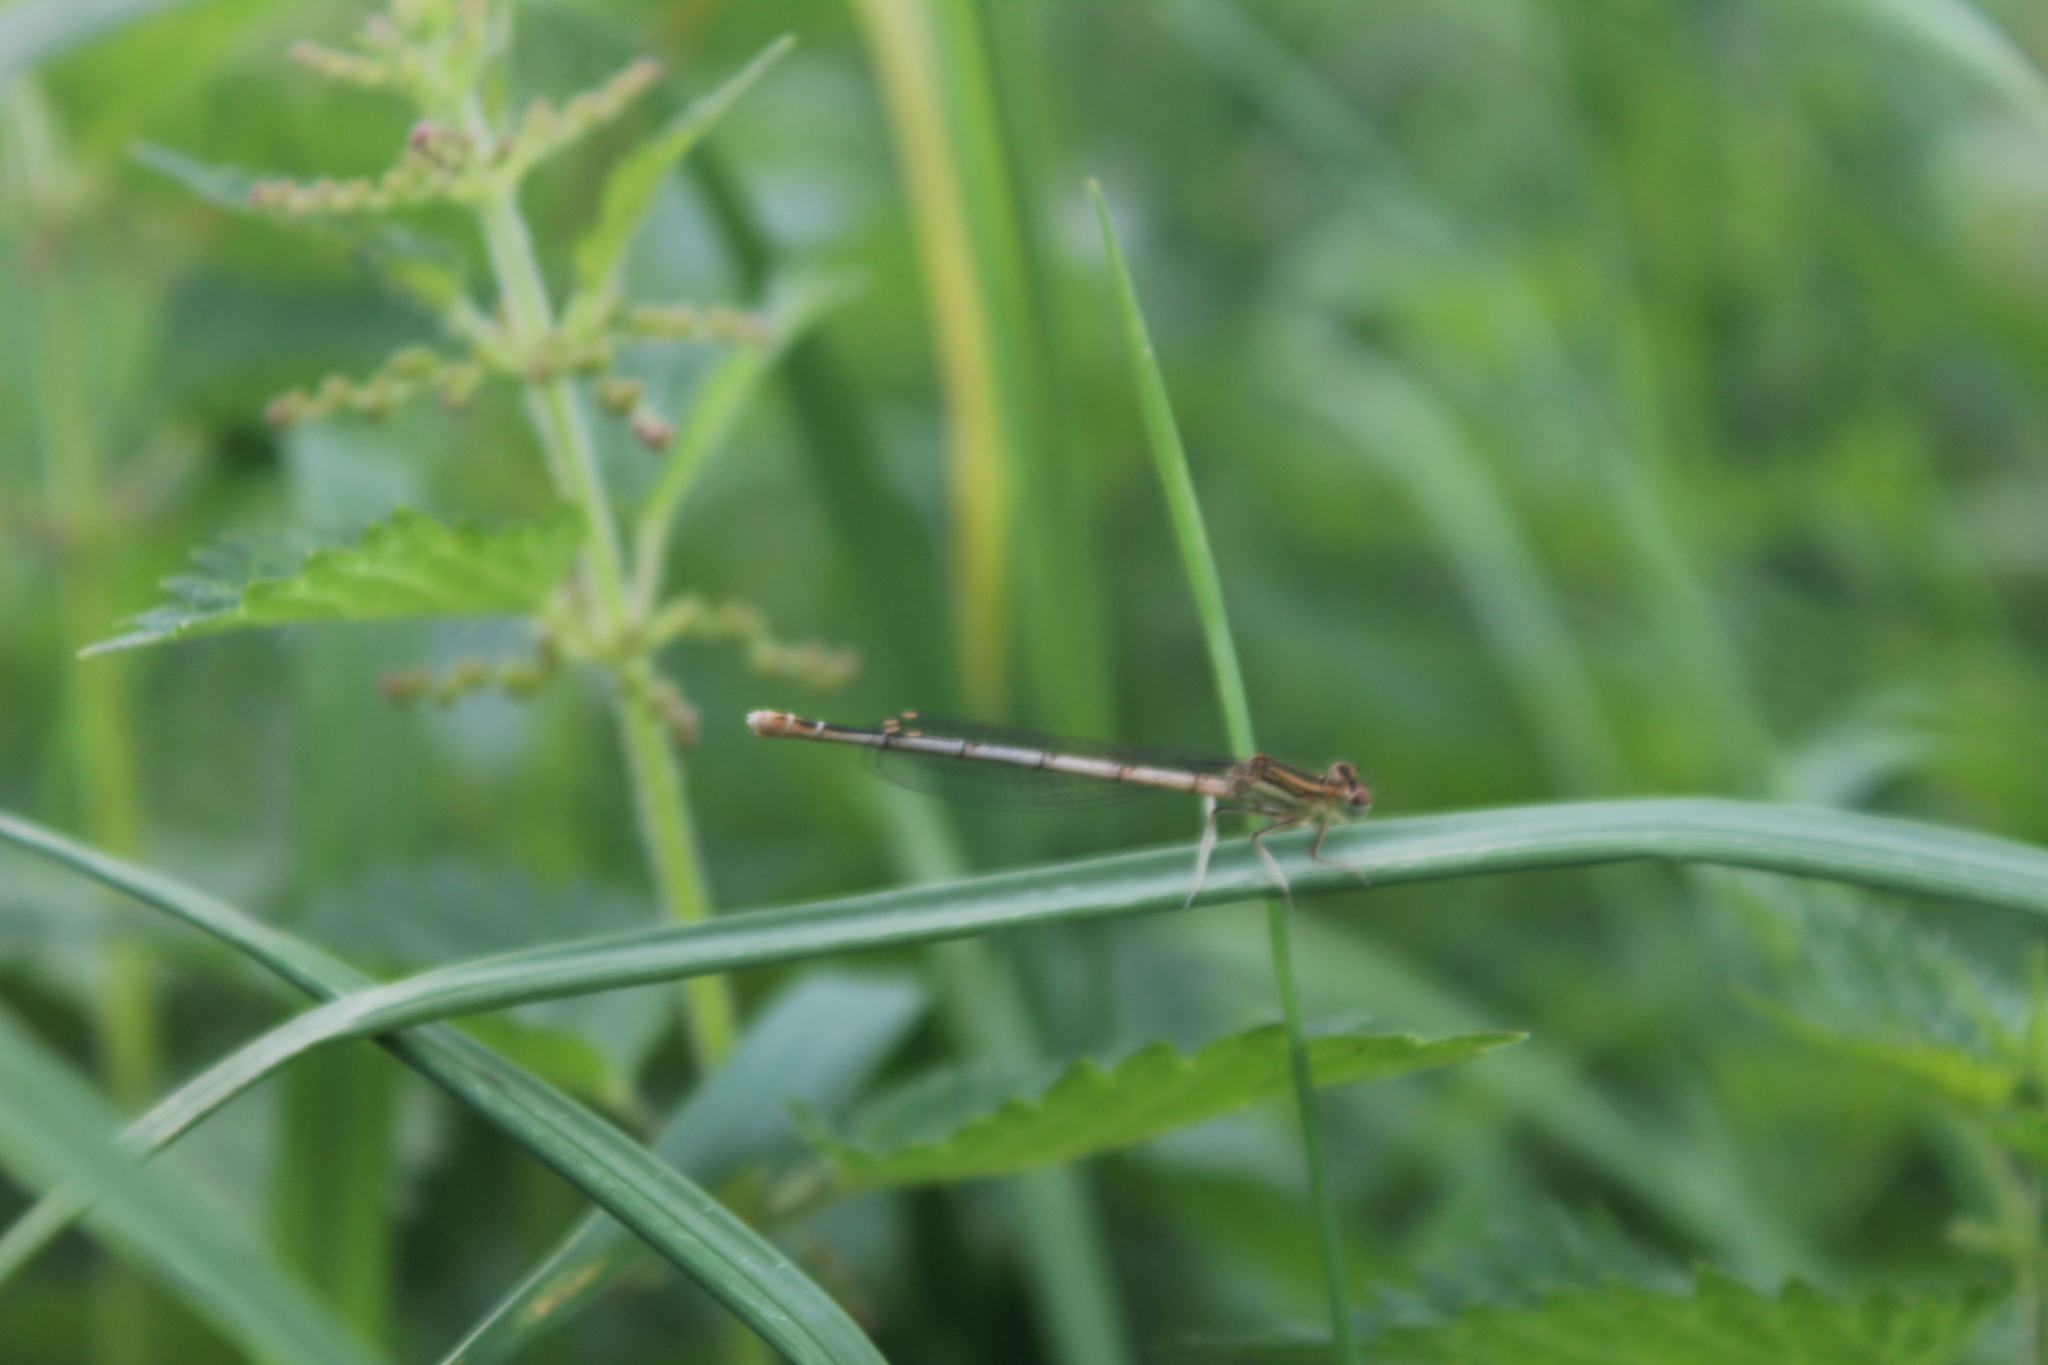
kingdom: Animalia
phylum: Arthropoda
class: Insecta
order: Odonata
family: Platycnemididae
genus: Platycnemis
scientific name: Platycnemis pennipes
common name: White-legged damselfly
